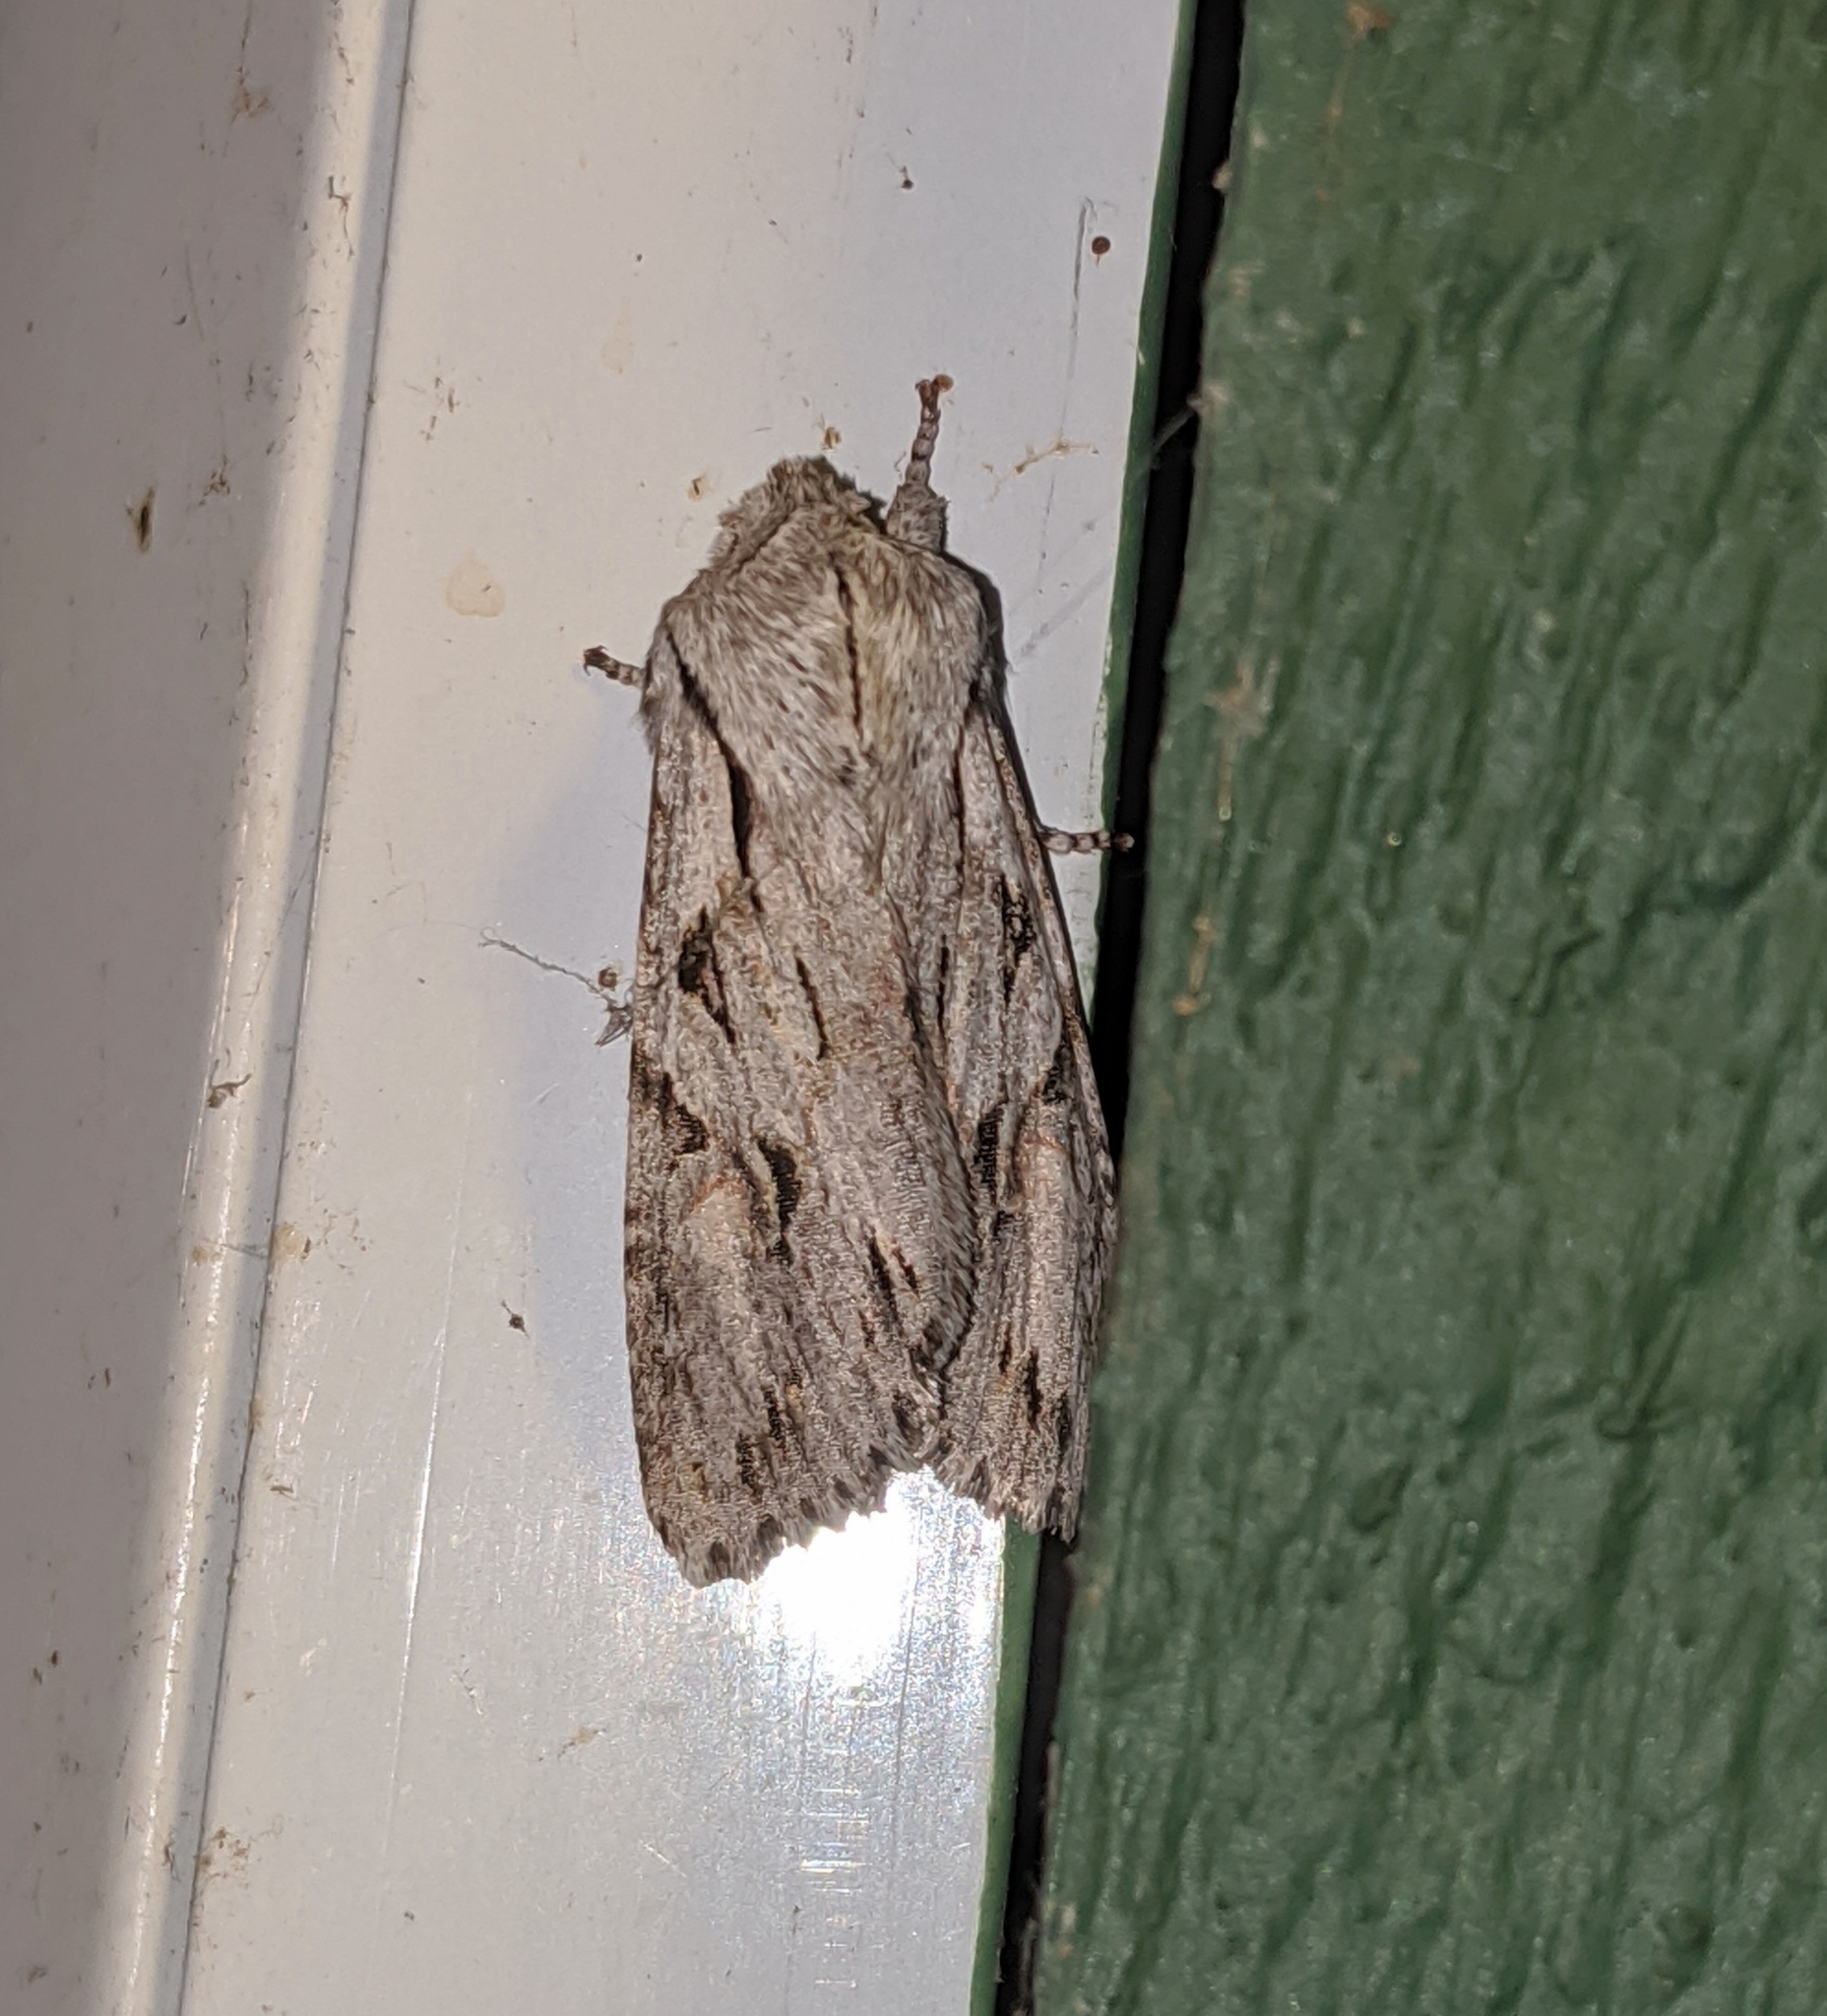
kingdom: Animalia
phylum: Arthropoda
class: Insecta
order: Lepidoptera
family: Noctuidae
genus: Egira
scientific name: Egira crucialis
